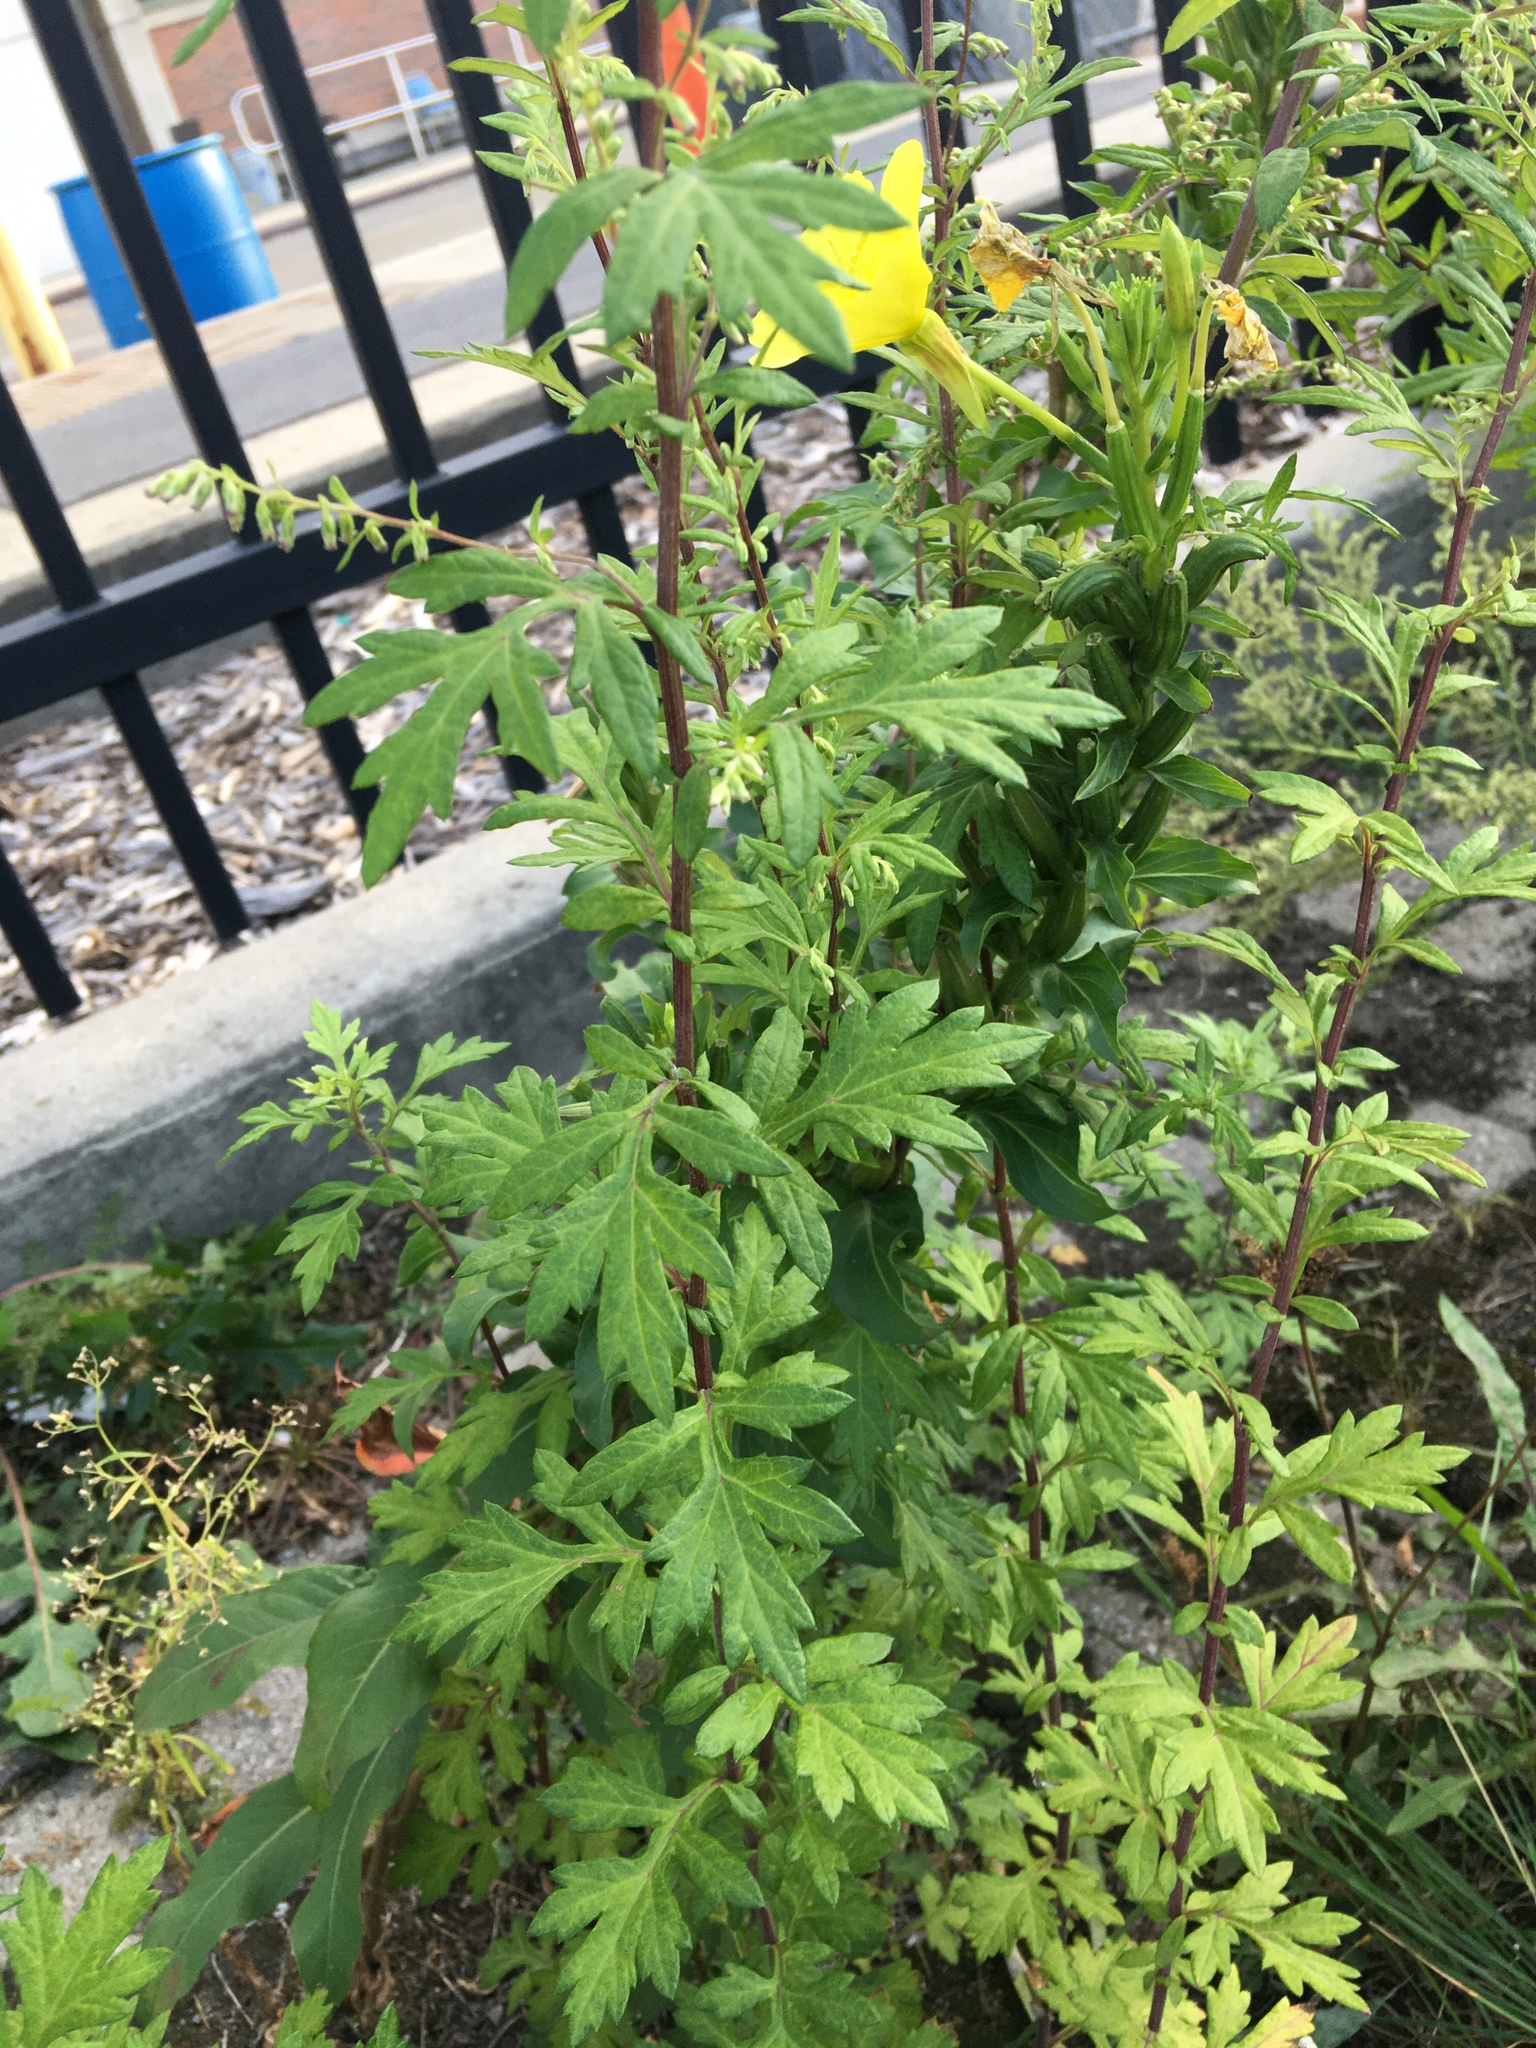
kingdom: Plantae
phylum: Tracheophyta
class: Magnoliopsida
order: Asterales
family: Asteraceae
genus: Artemisia
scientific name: Artemisia vulgaris
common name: Mugwort
